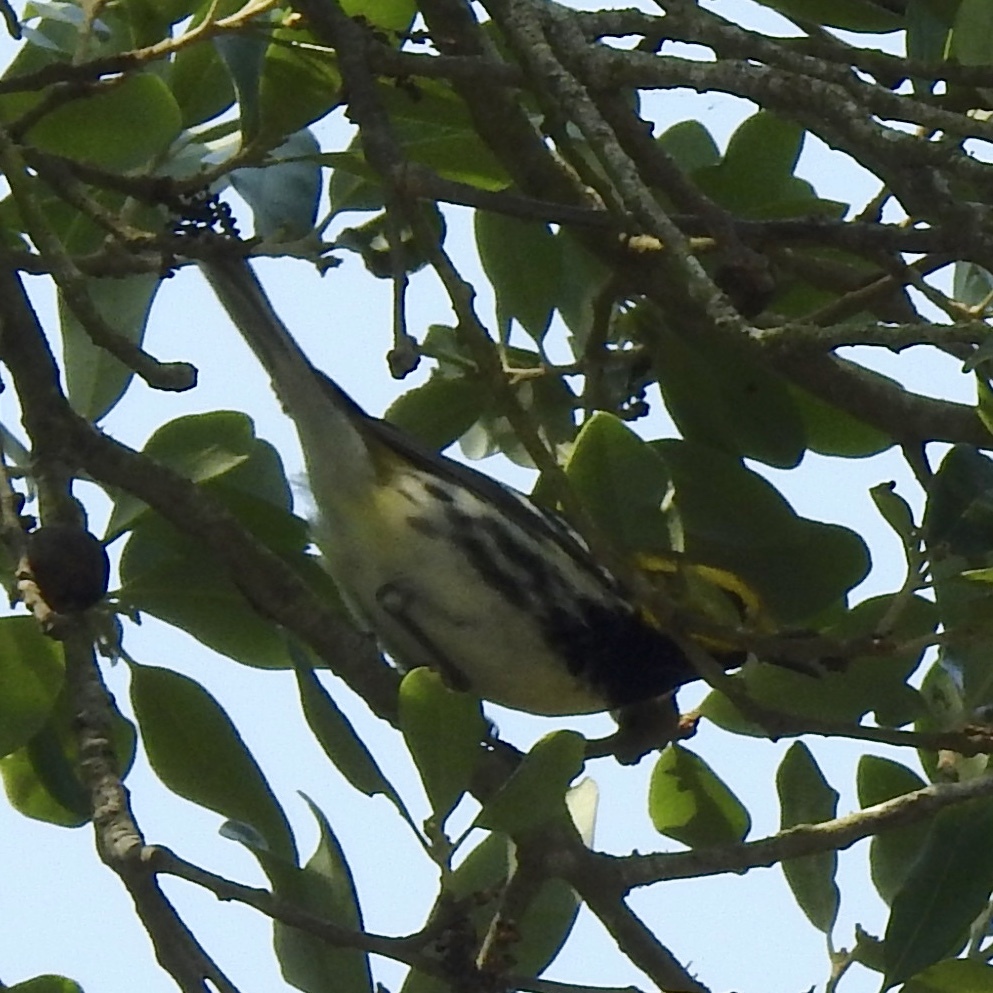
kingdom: Animalia
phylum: Chordata
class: Aves
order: Passeriformes
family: Parulidae
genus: Setophaga
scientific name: Setophaga virens
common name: Black-throated green warbler
